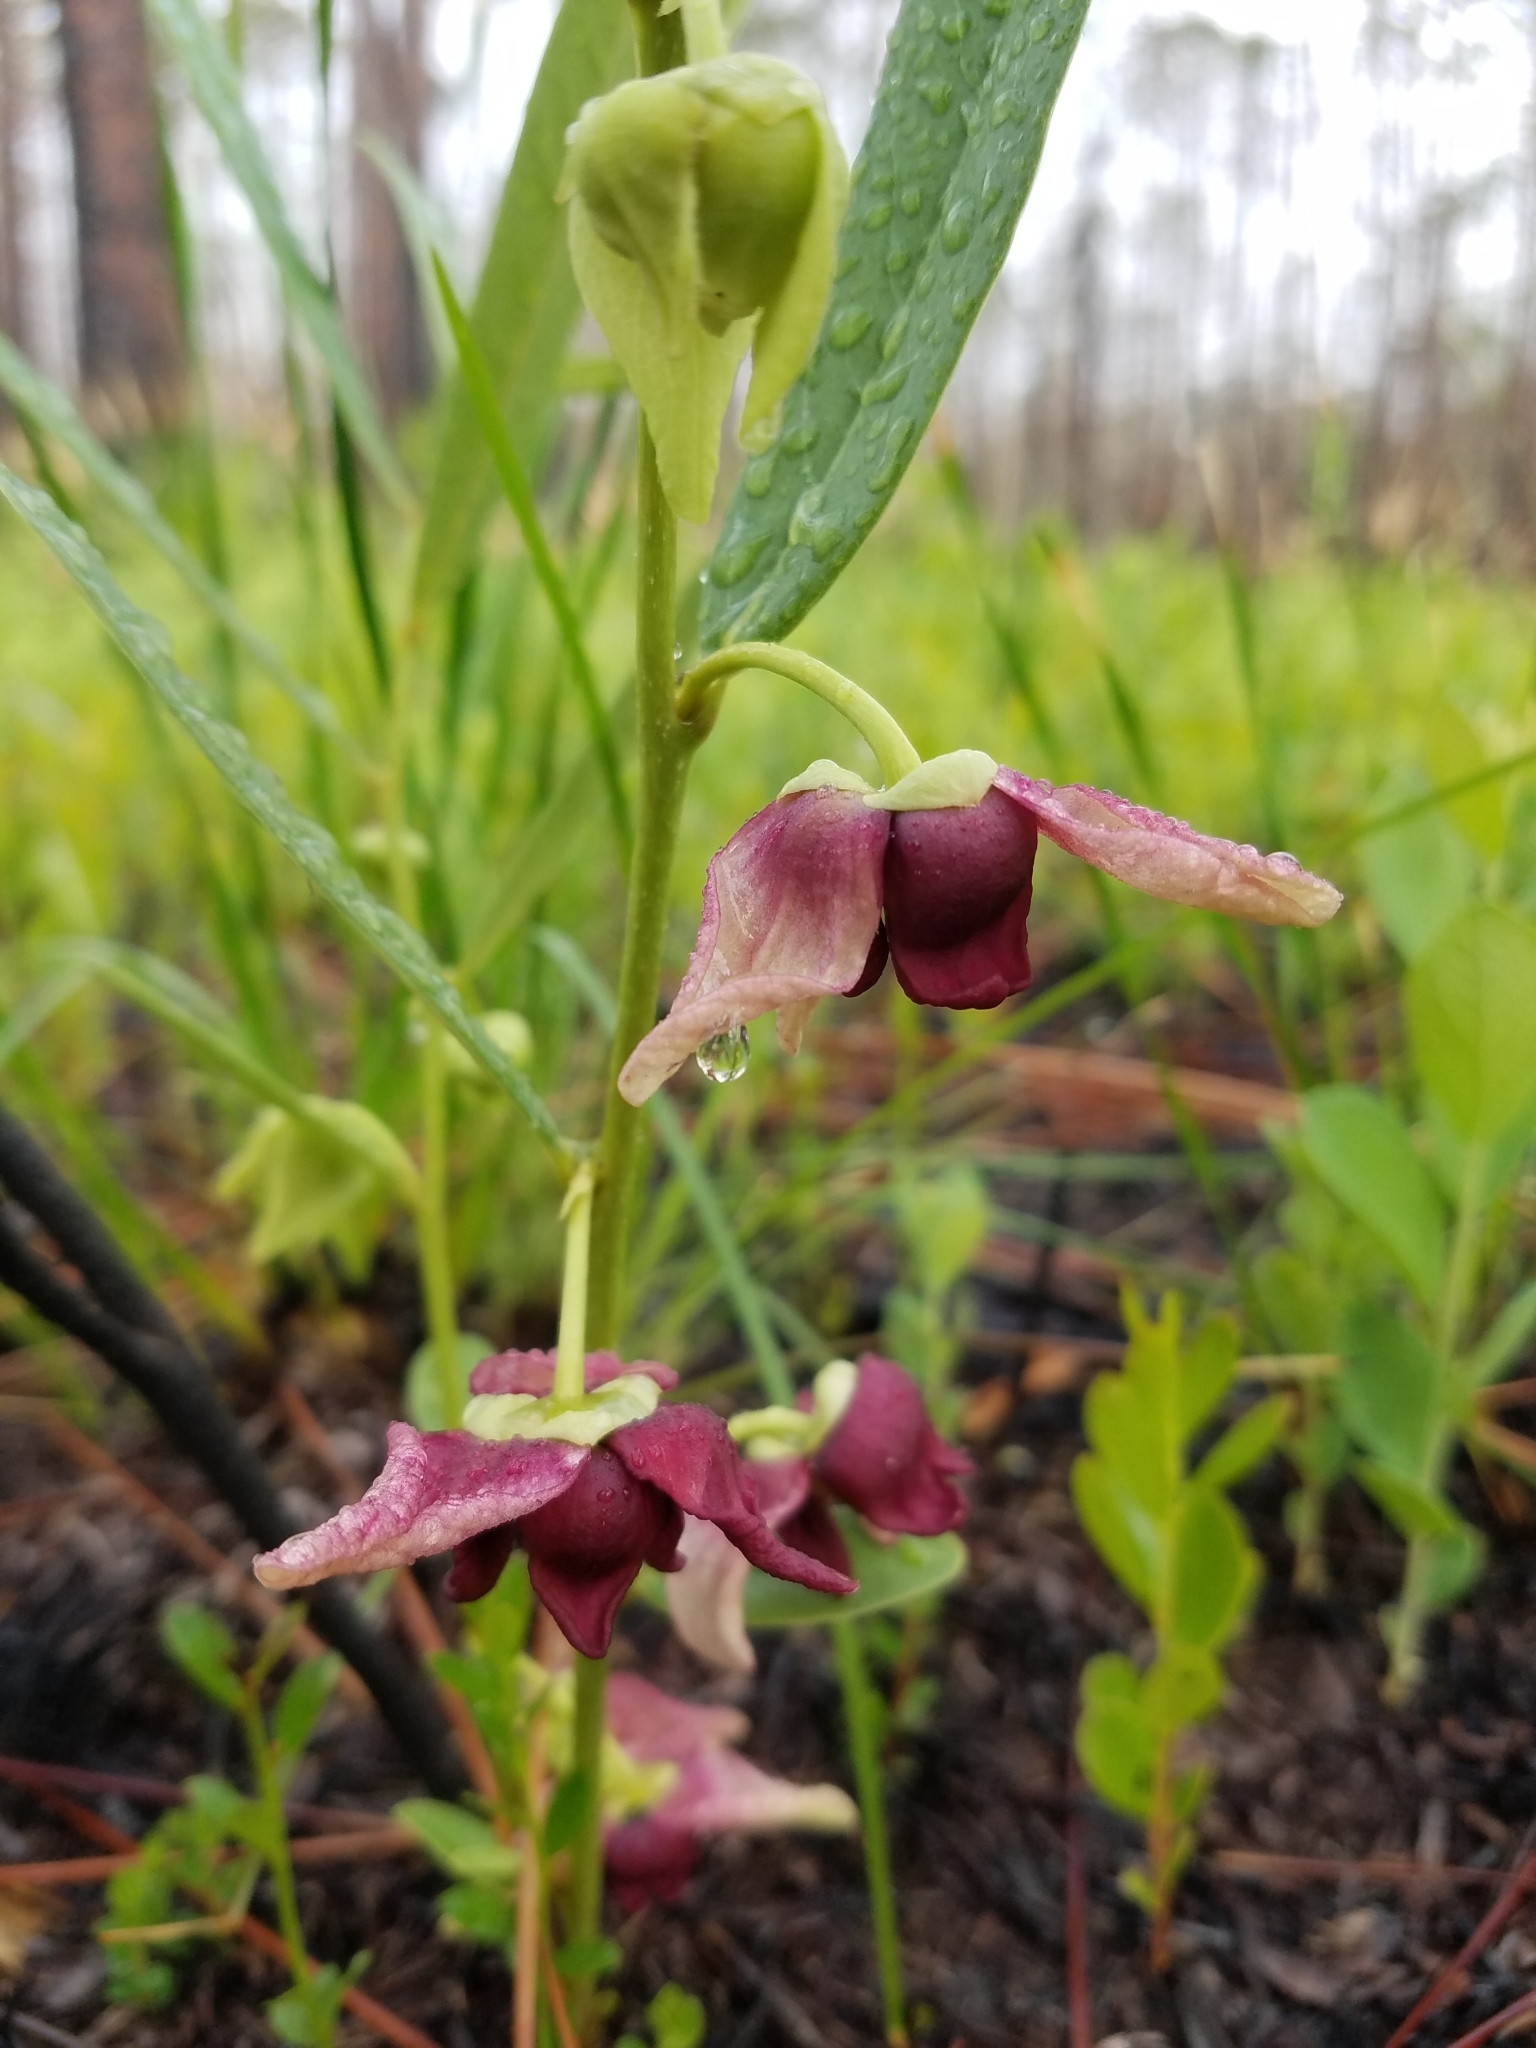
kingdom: Plantae
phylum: Tracheophyta
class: Magnoliopsida
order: Magnoliales
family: Annonaceae
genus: Asimina
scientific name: Asimina pygmaea
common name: Dwarf pawpaw
